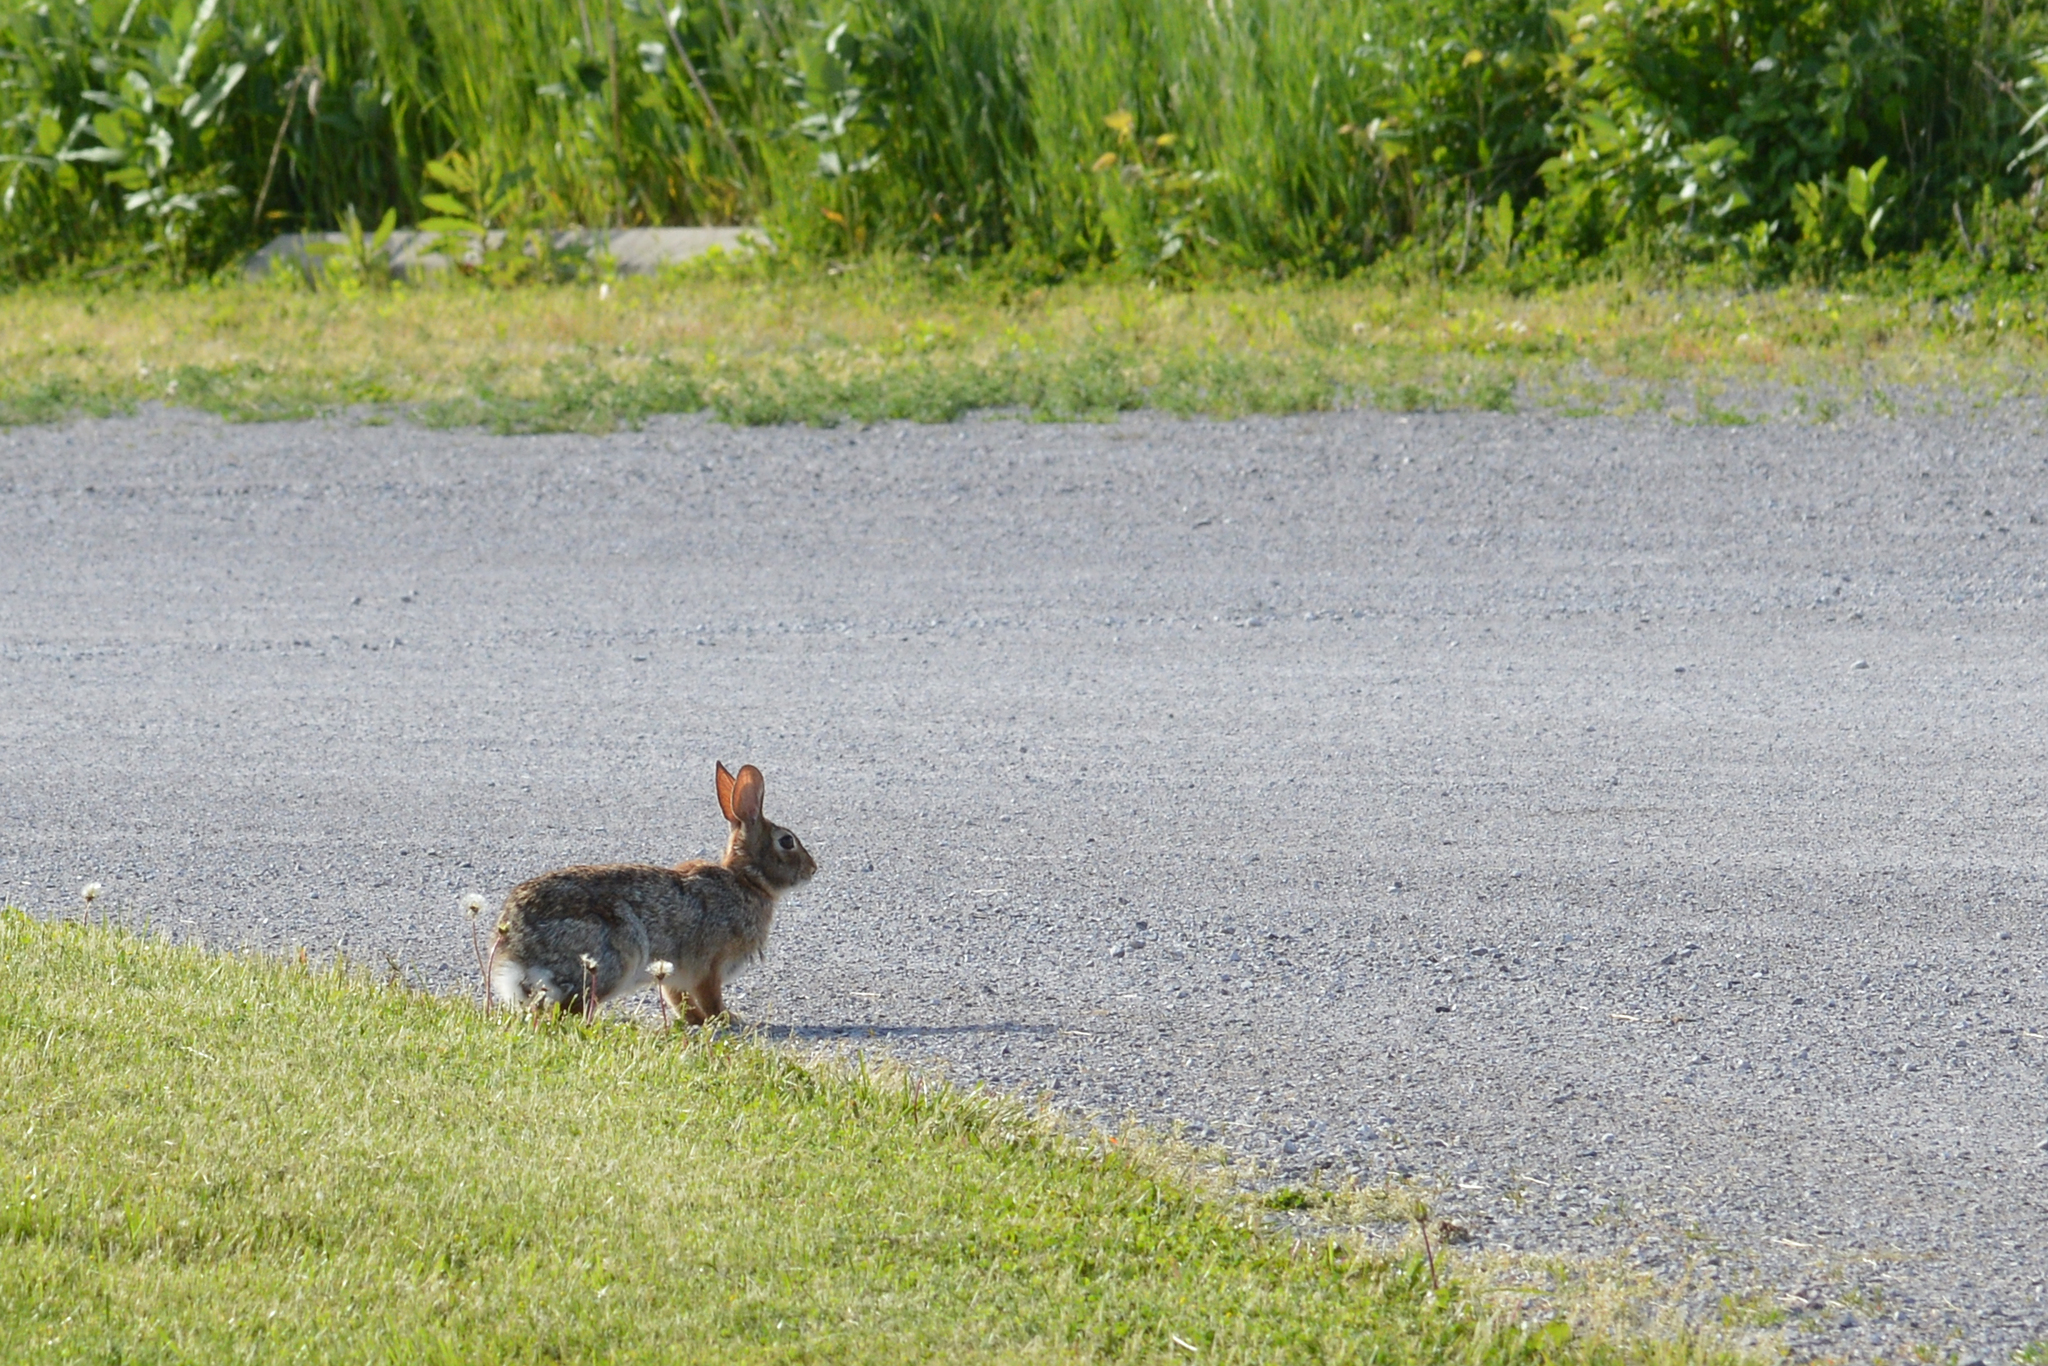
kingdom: Animalia
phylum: Chordata
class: Mammalia
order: Lagomorpha
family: Leporidae
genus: Sylvilagus
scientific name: Sylvilagus floridanus
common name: Eastern cottontail
